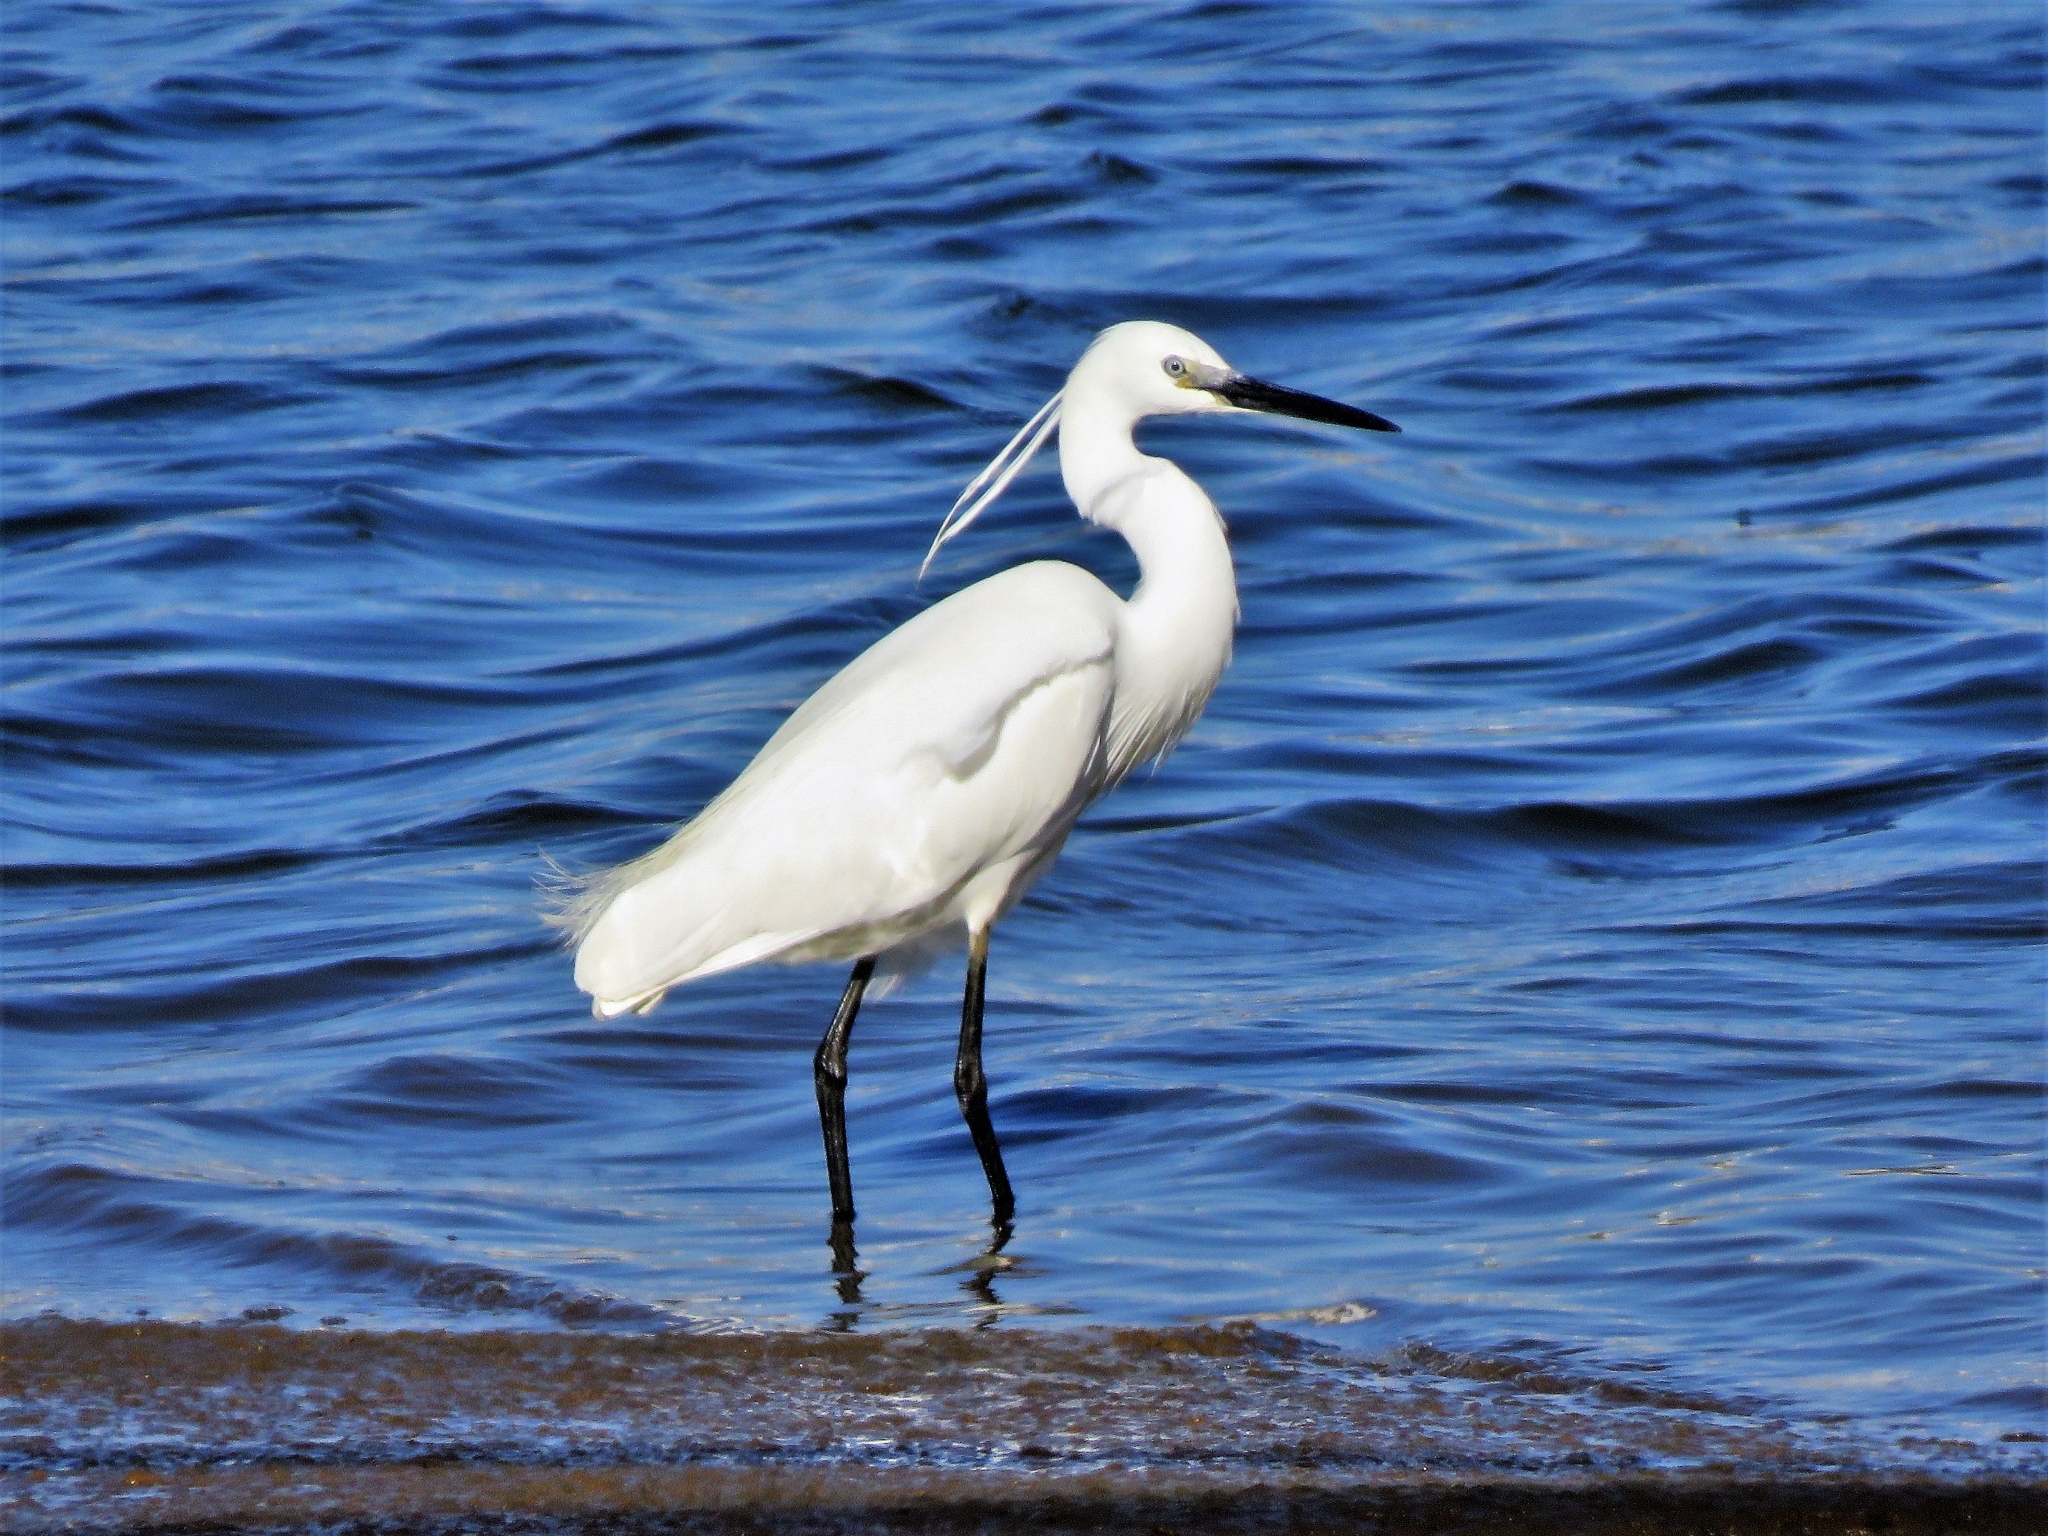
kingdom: Animalia
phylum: Chordata
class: Aves
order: Pelecaniformes
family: Ardeidae
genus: Egretta
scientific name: Egretta garzetta
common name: Little egret
